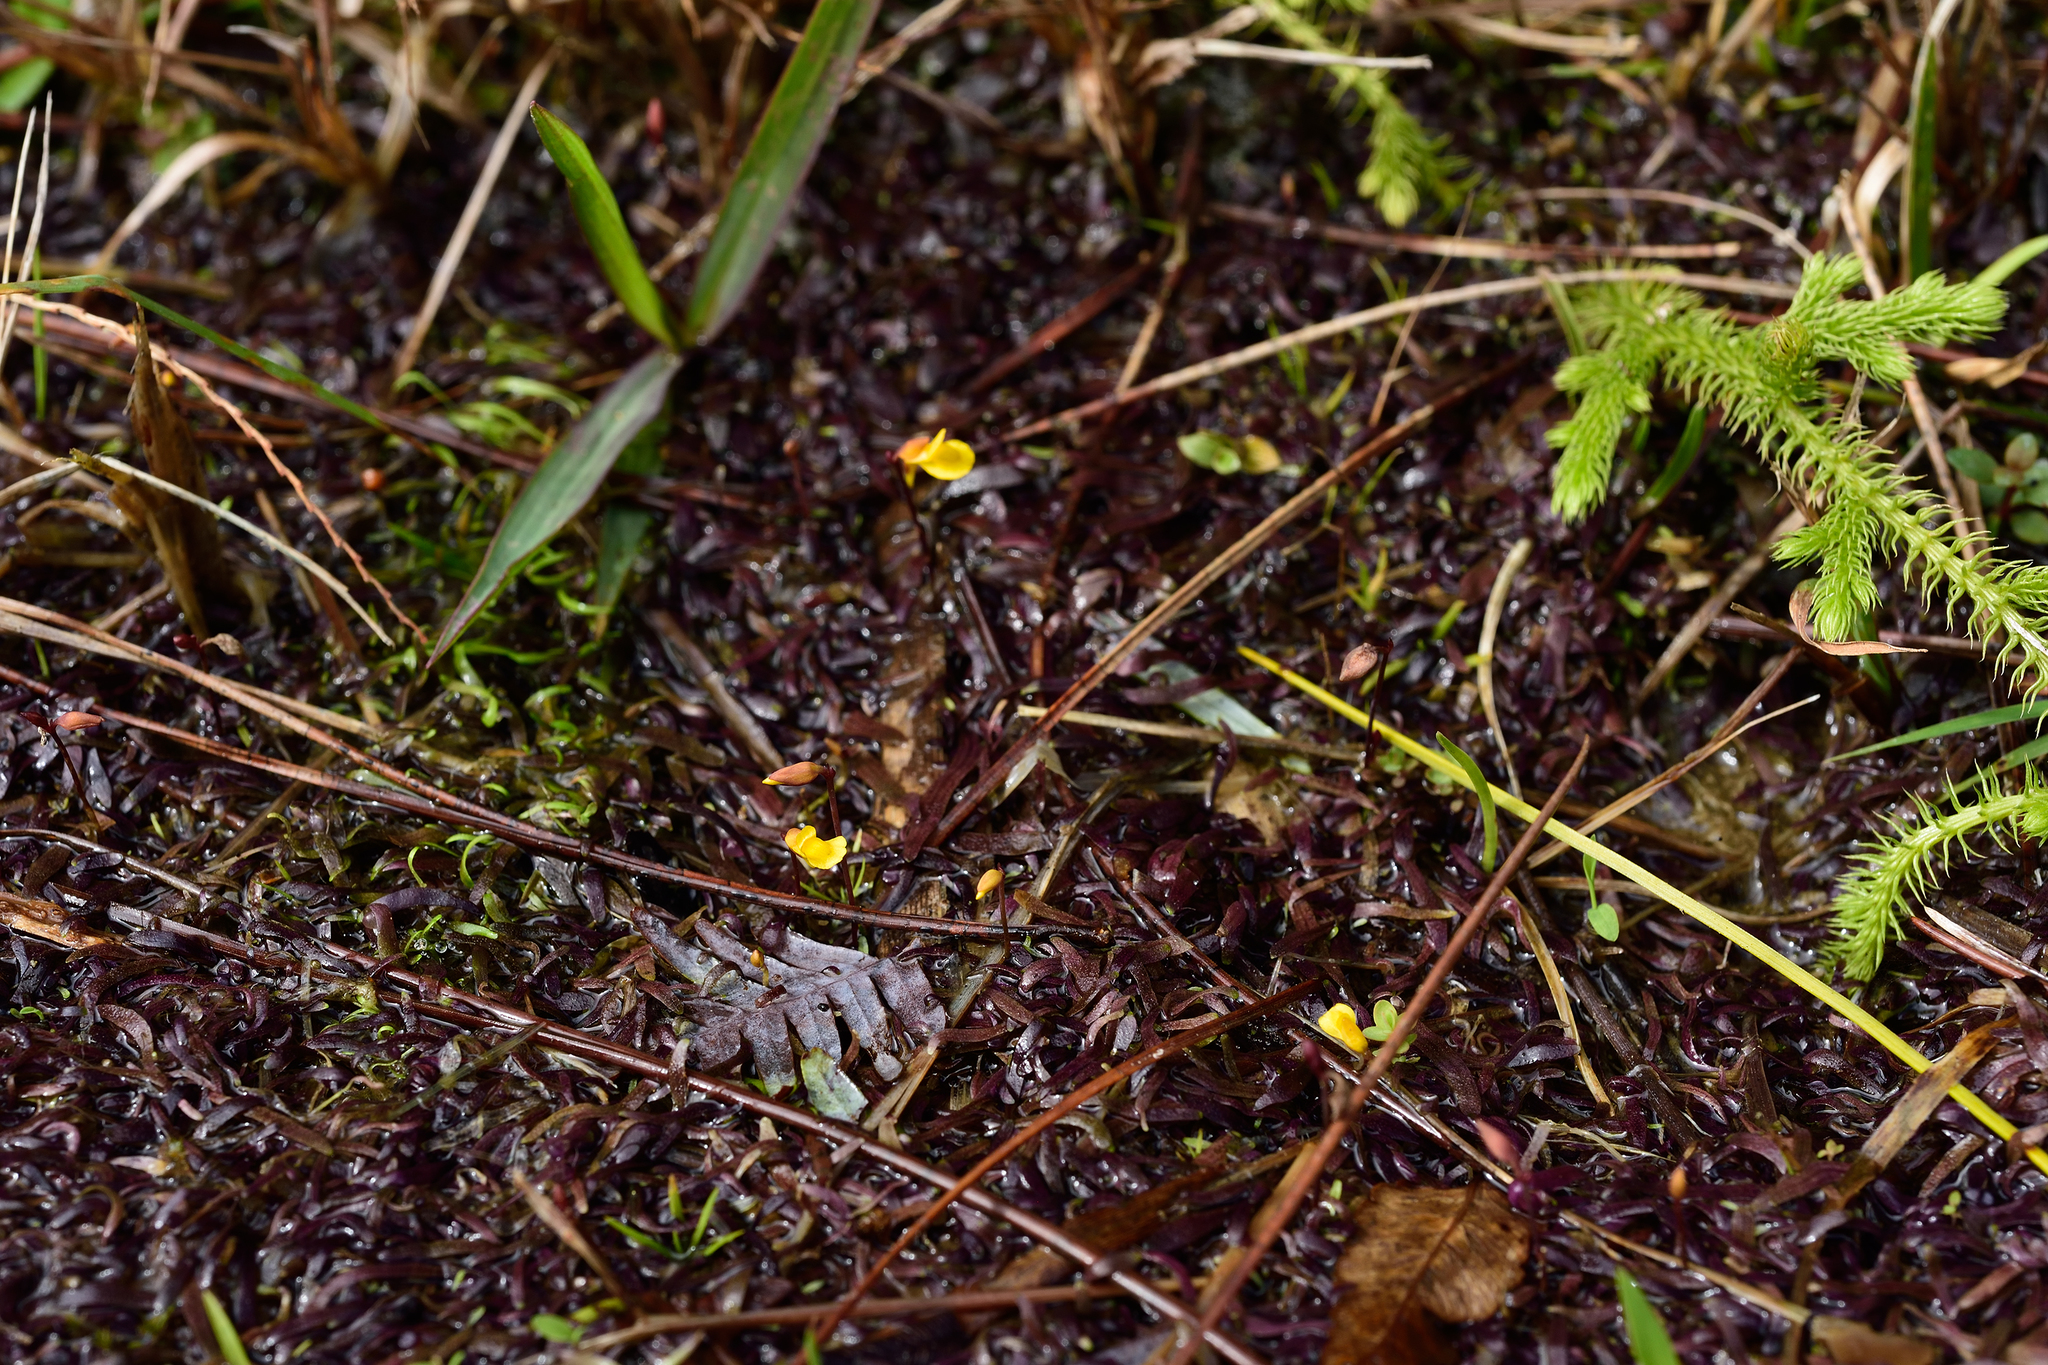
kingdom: Plantae
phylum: Tracheophyta
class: Magnoliopsida
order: Lamiales
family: Lentibulariaceae
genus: Utricularia
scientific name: Utricularia bifida
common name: Bifid bladderwort
